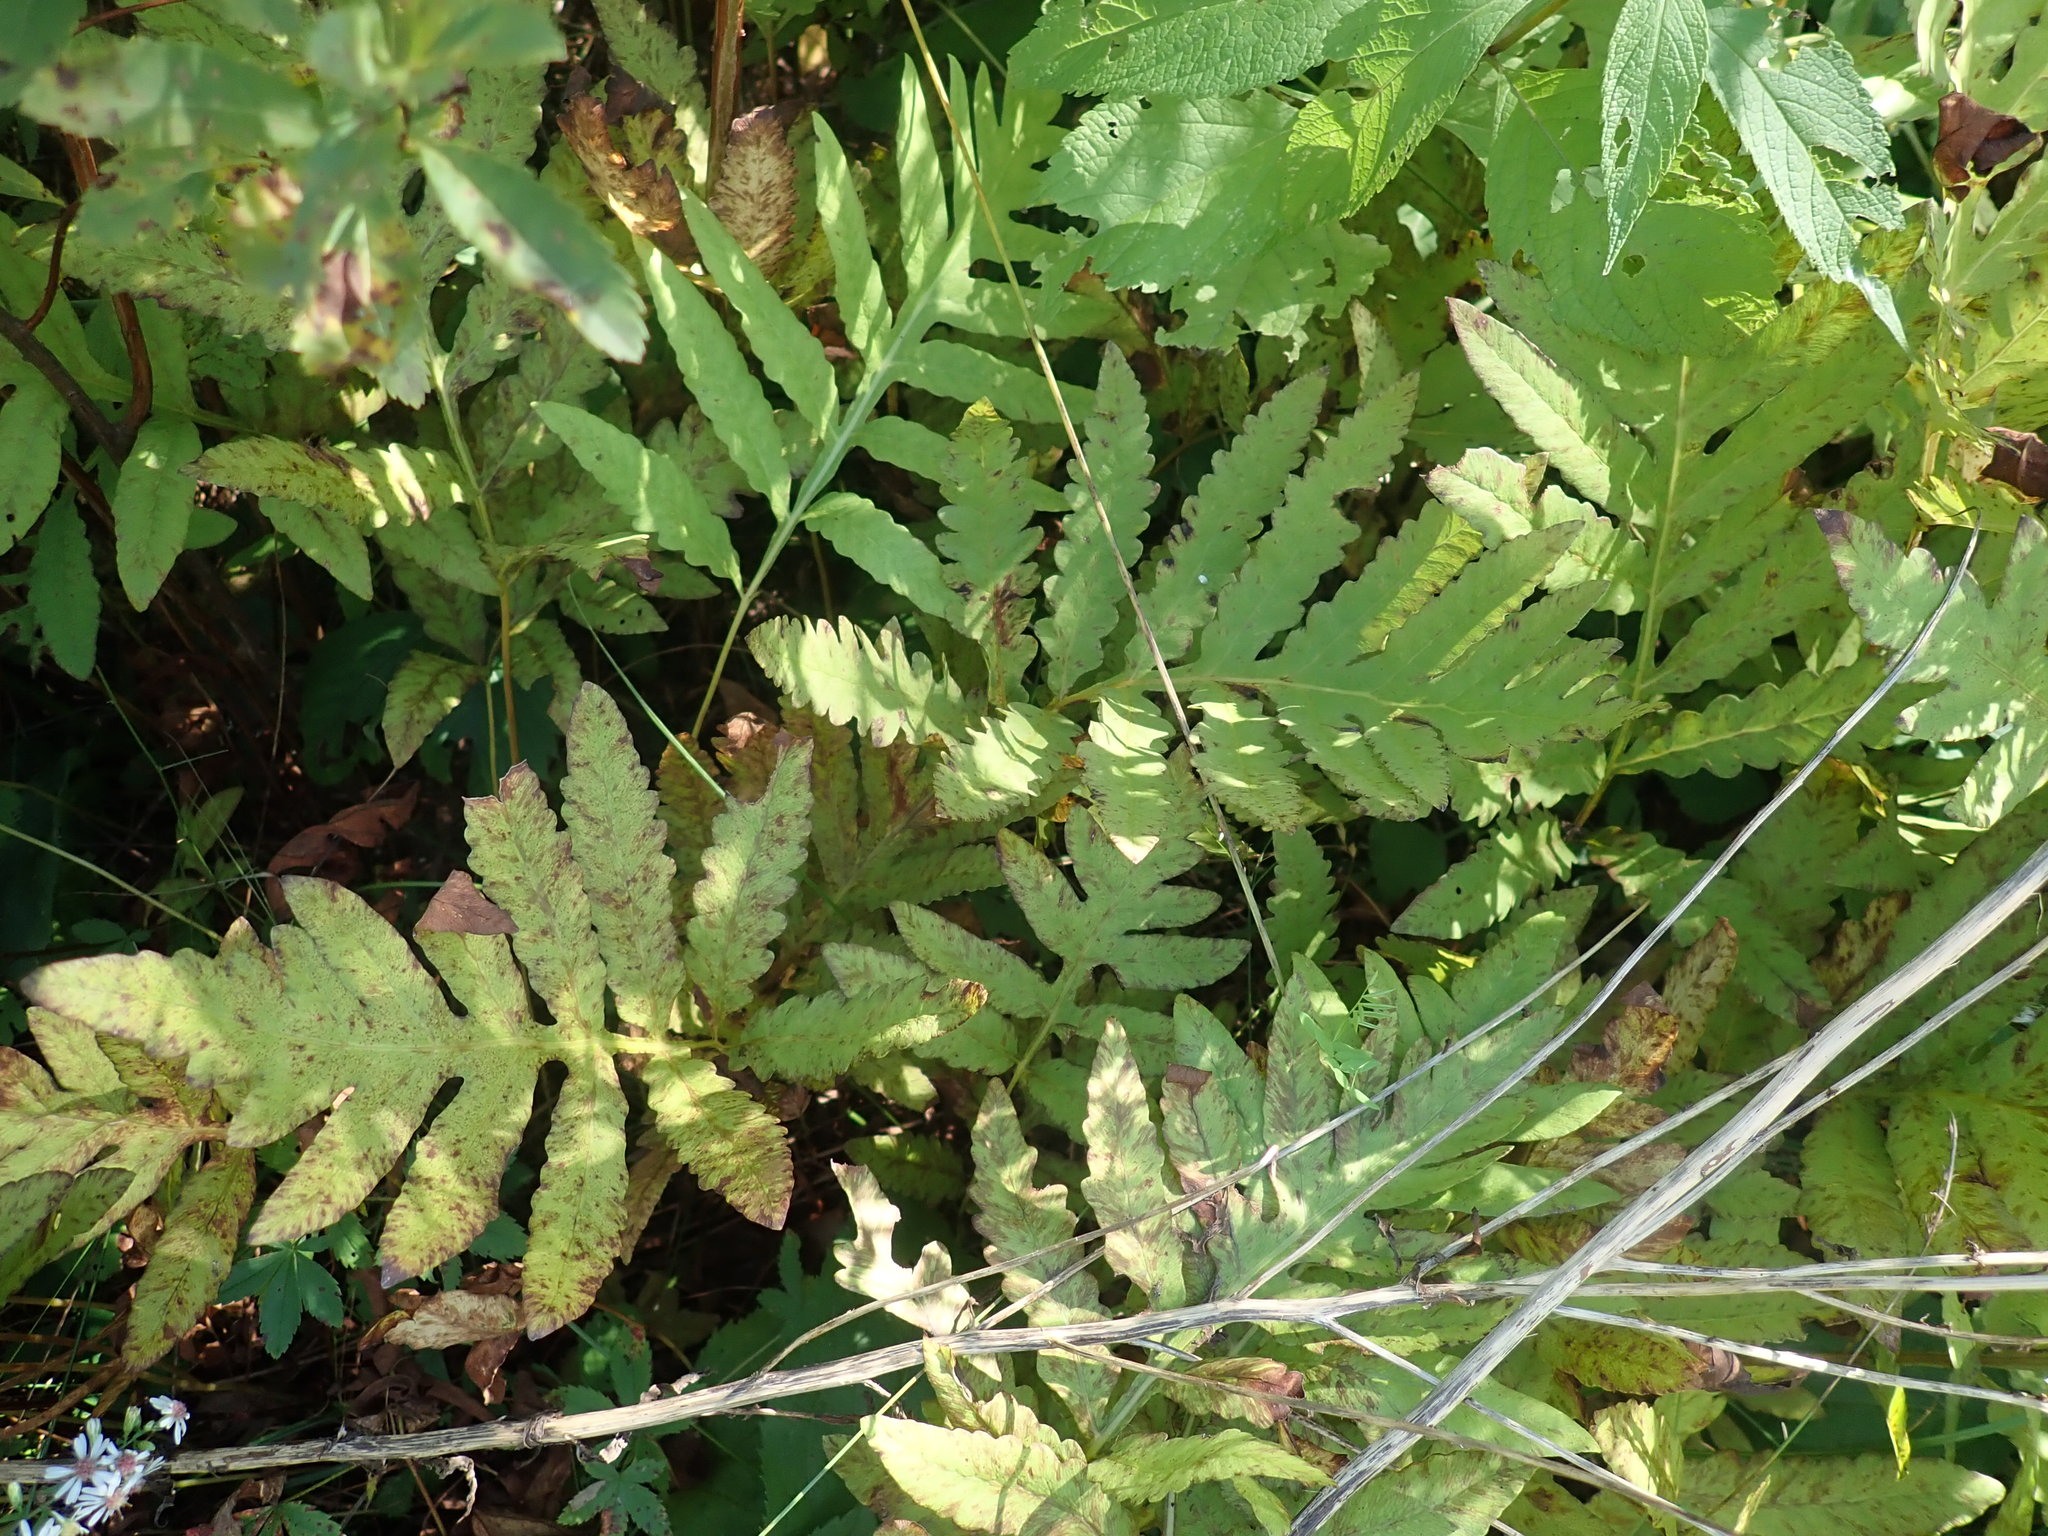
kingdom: Plantae
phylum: Tracheophyta
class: Polypodiopsida
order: Polypodiales
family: Onocleaceae
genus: Onoclea
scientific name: Onoclea sensibilis
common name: Sensitive fern
